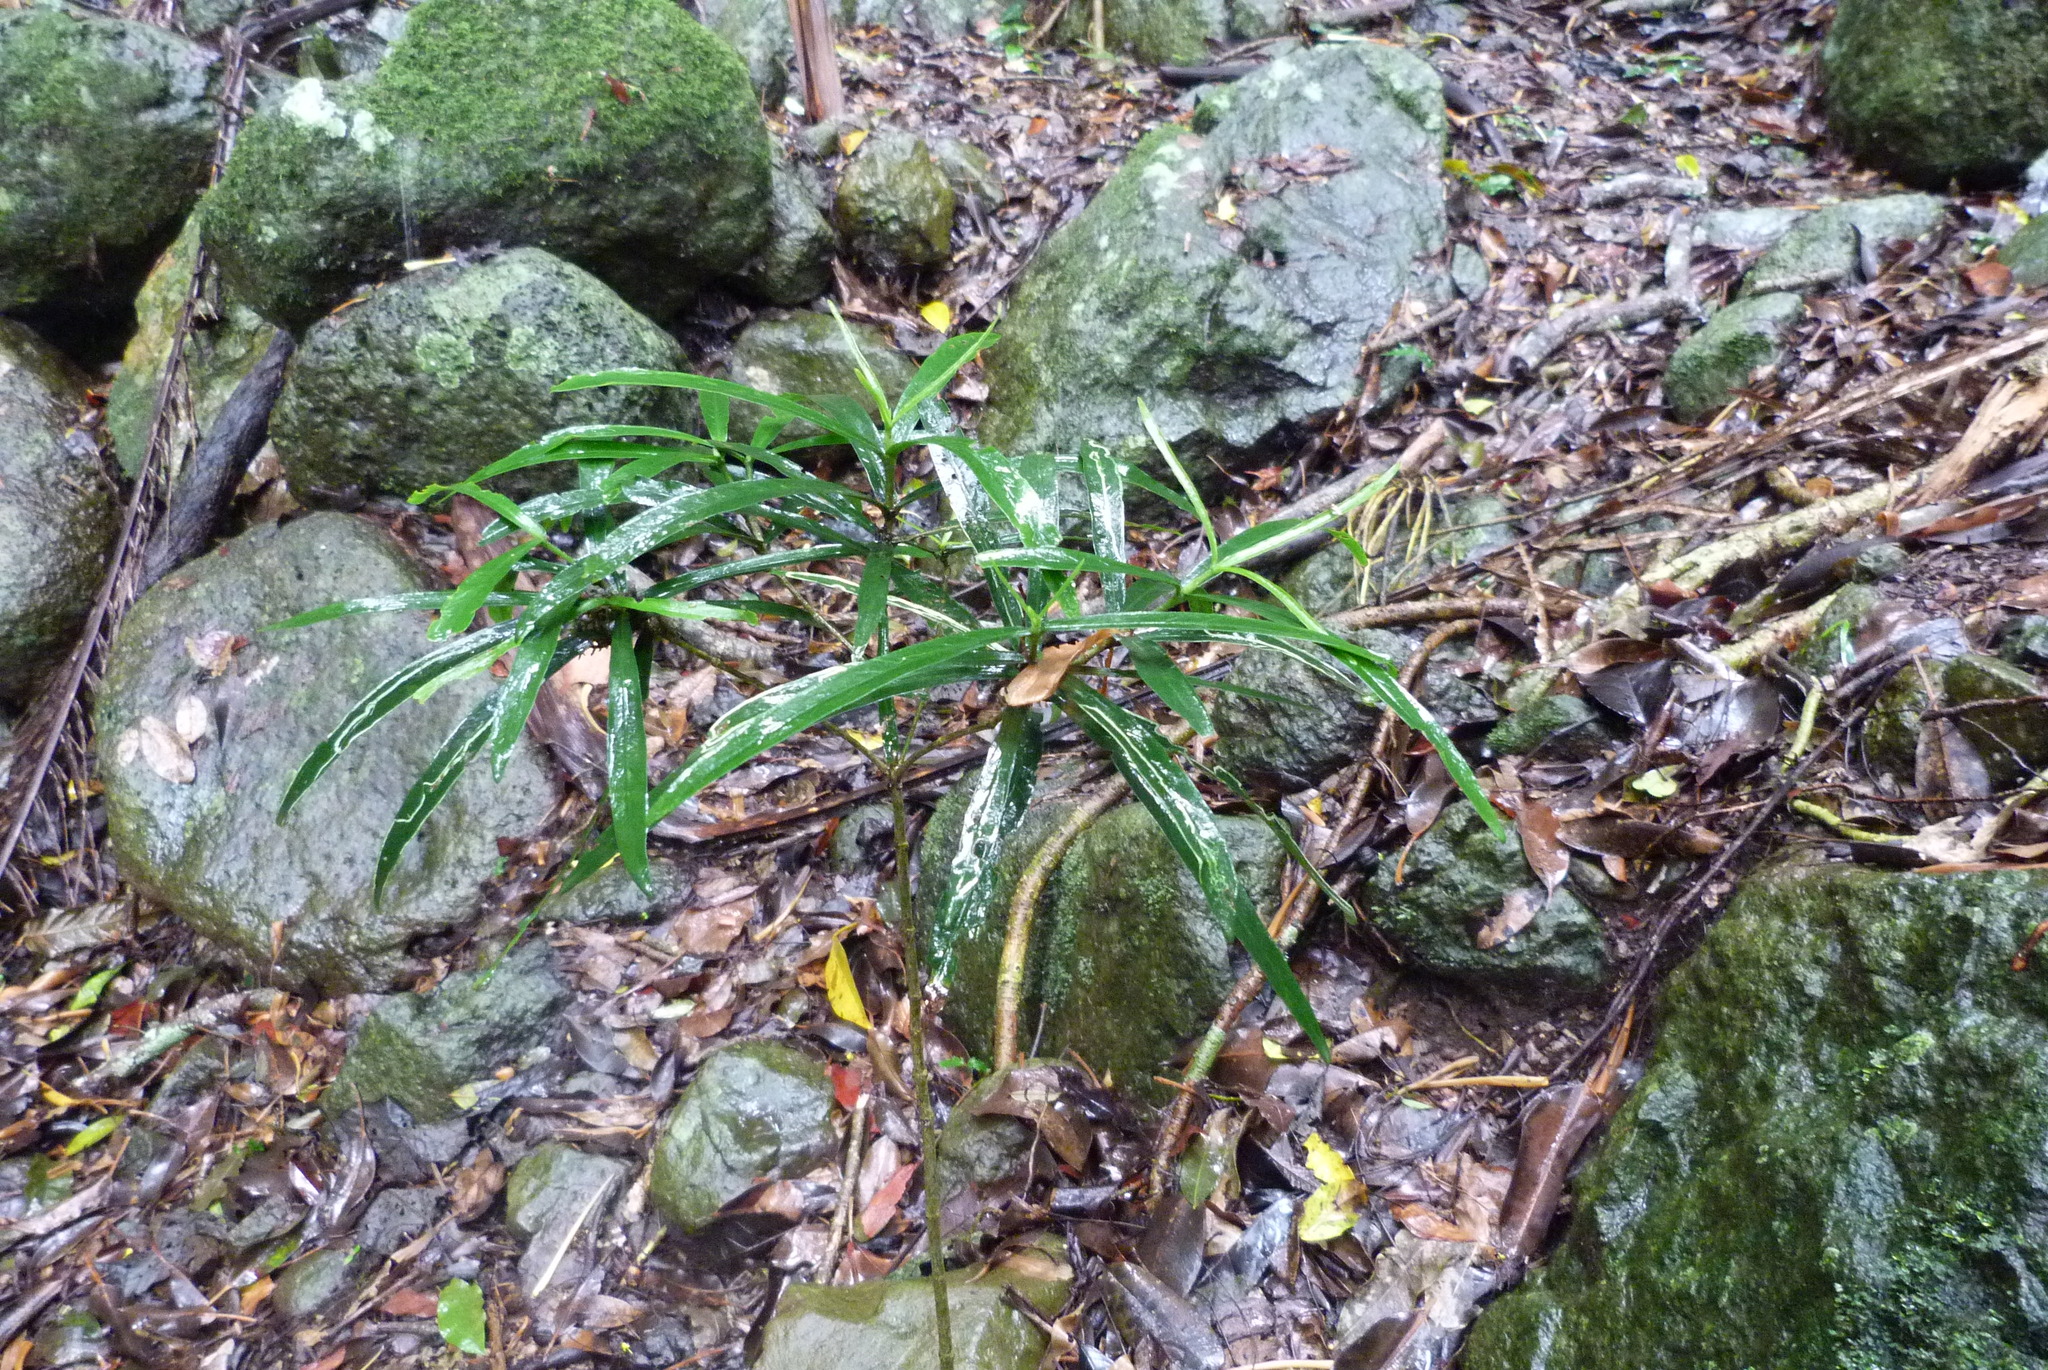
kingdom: Plantae
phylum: Tracheophyta
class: Magnoliopsida
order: Gentianales
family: Rubiaceae
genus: Atractocarpus
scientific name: Atractocarpus chartaceus
